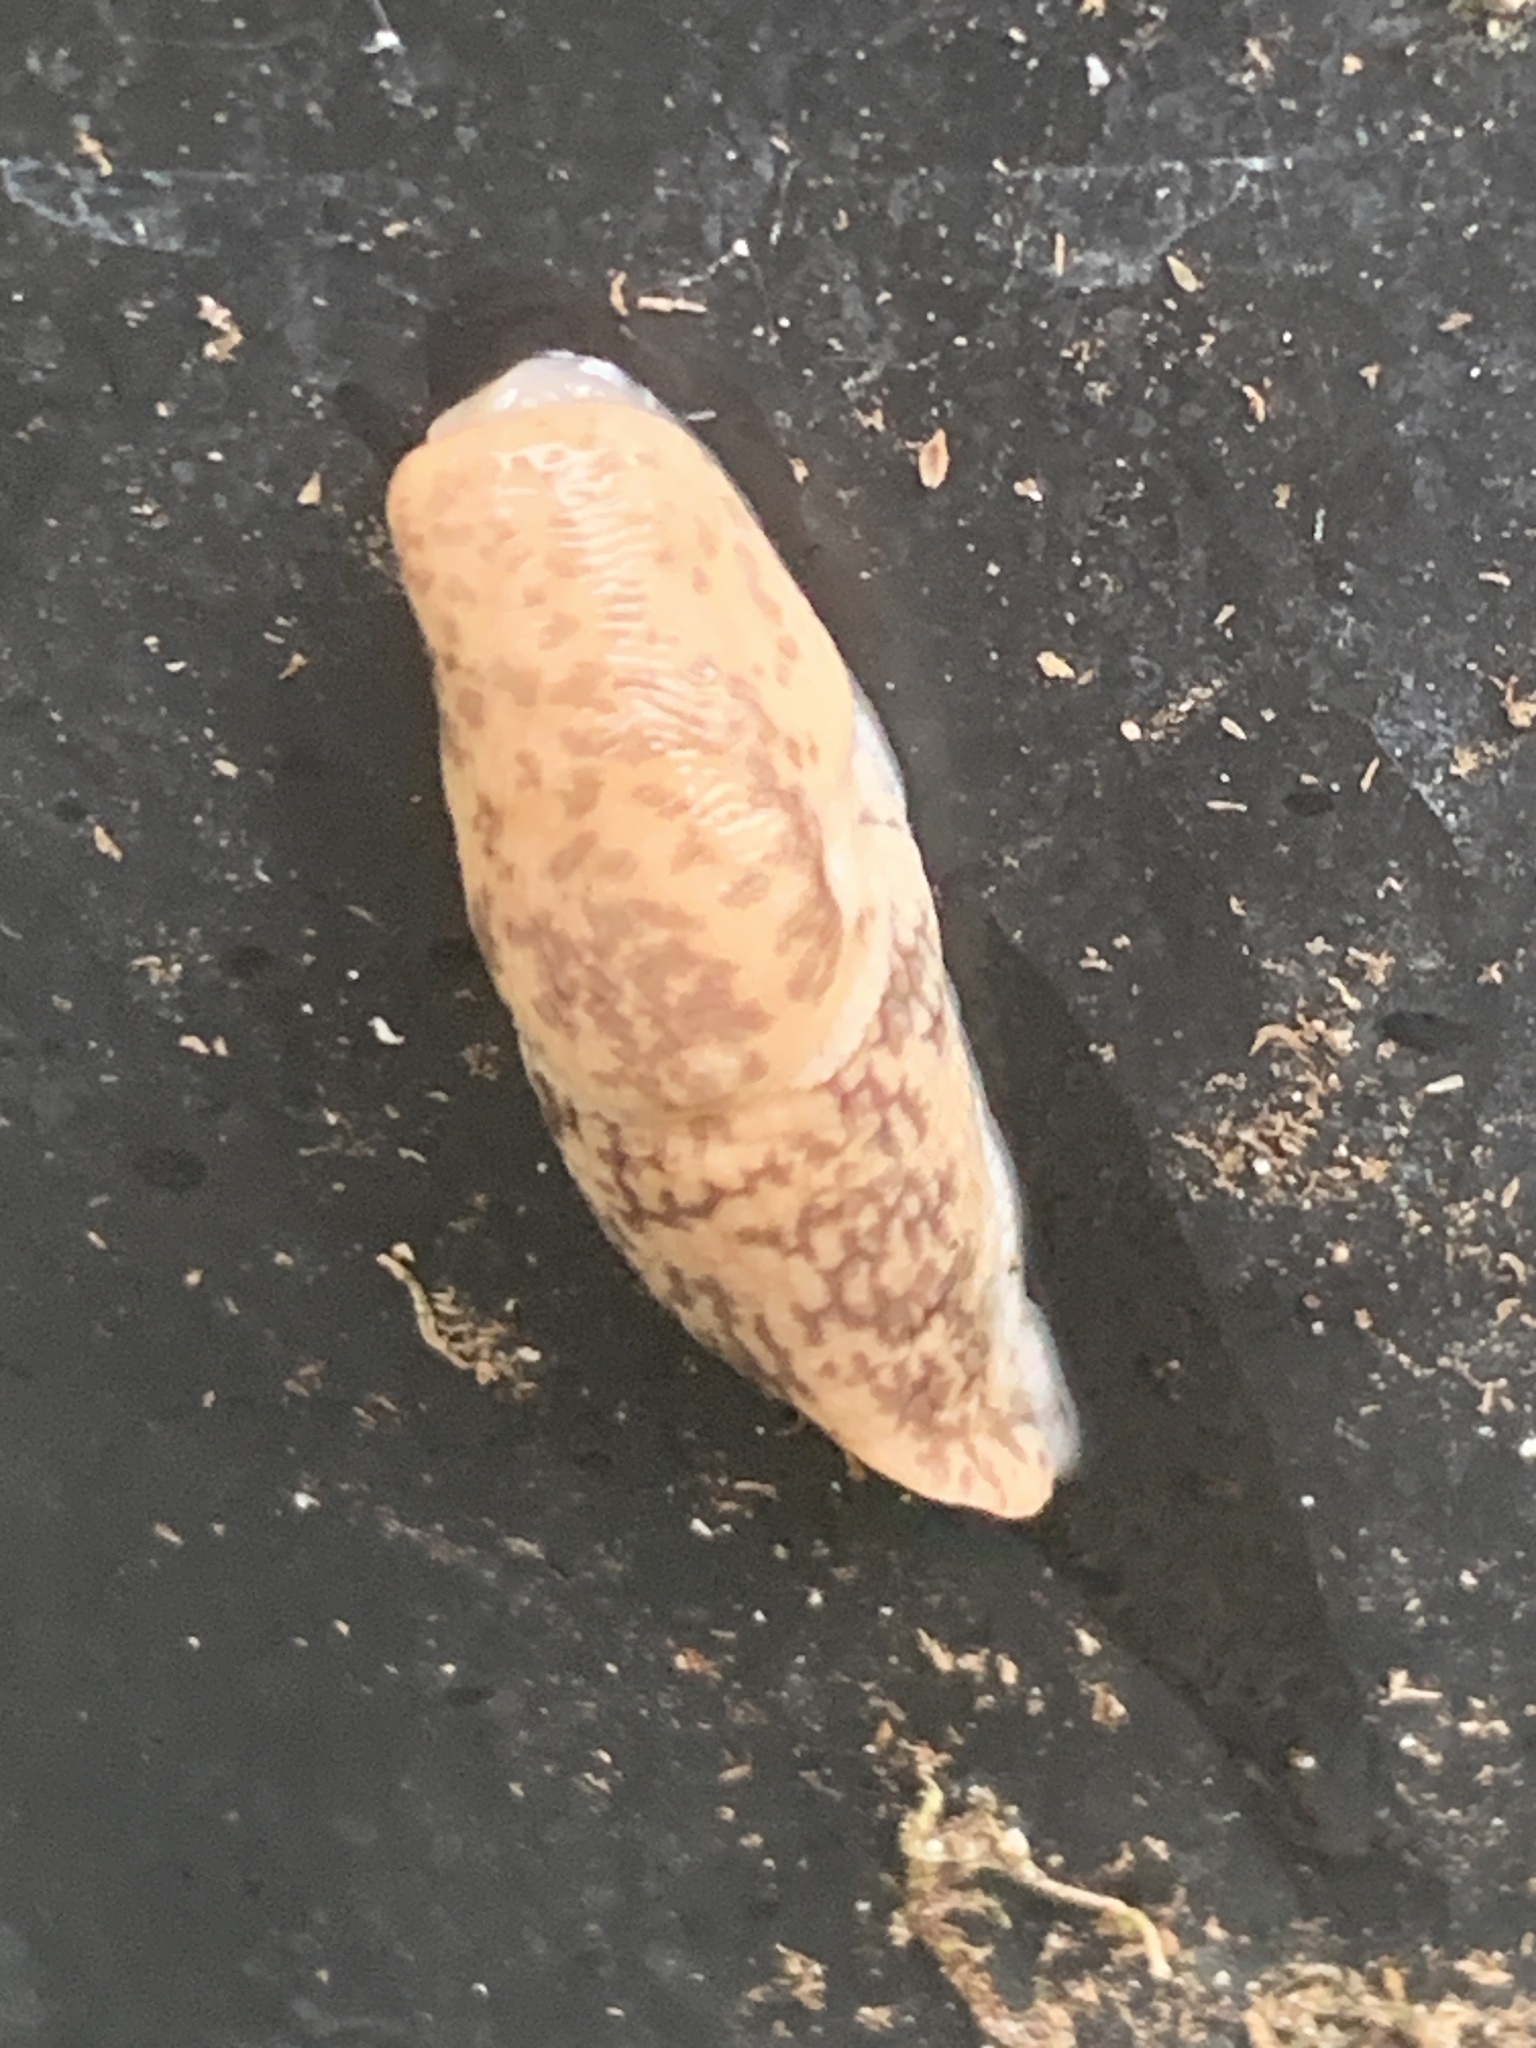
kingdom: Animalia
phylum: Mollusca
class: Gastropoda
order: Stylommatophora
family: Agriolimacidae
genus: Deroceras
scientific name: Deroceras reticulatum
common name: Gray field slug
